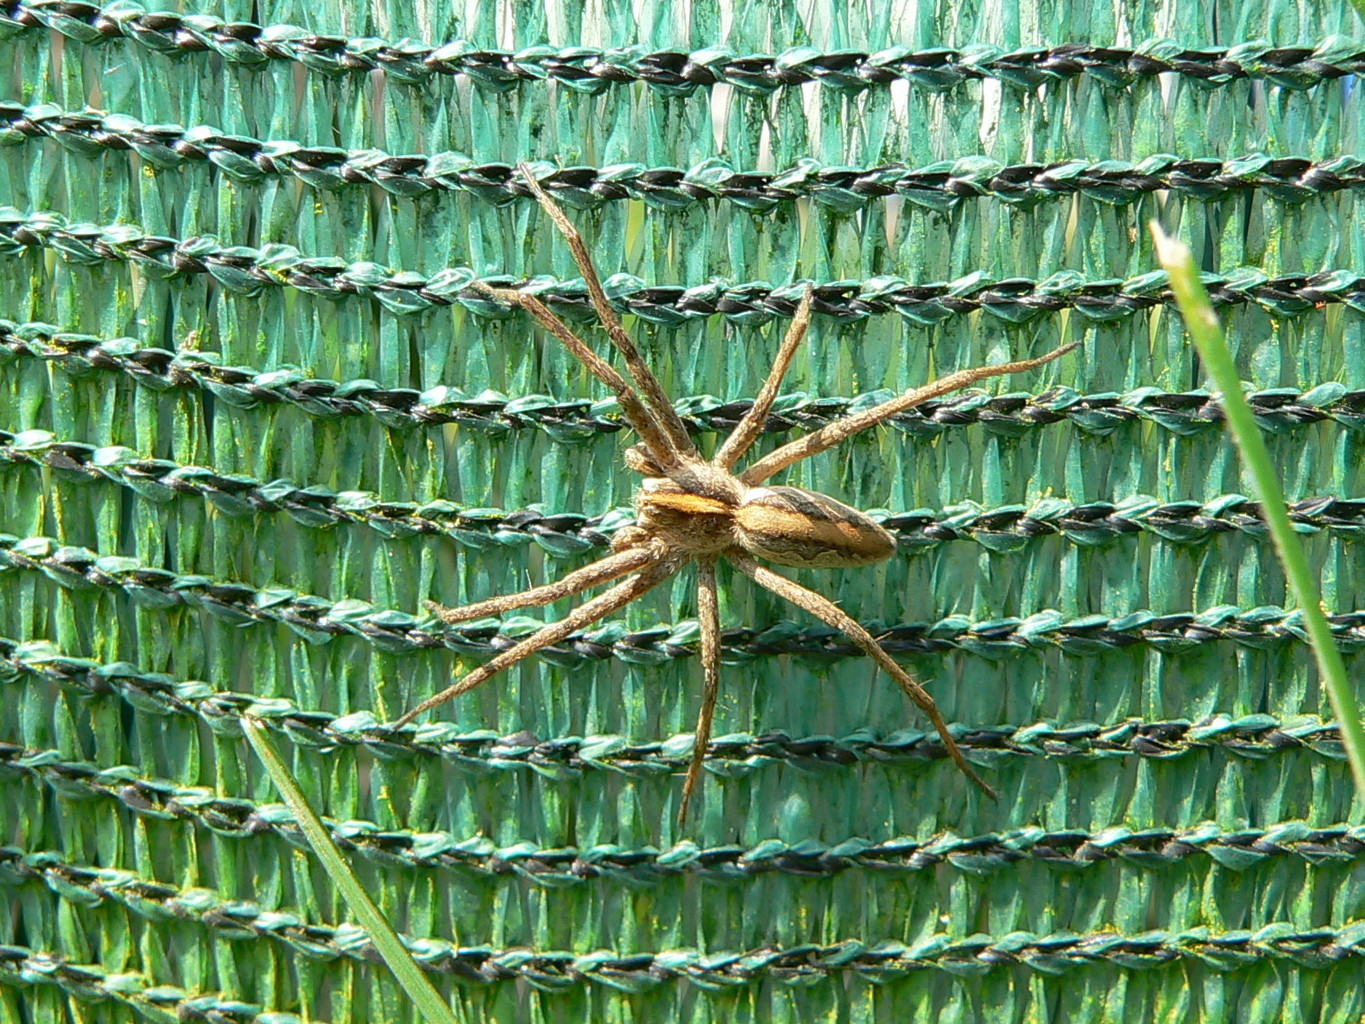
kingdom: Animalia
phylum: Arthropoda
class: Arachnida
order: Araneae
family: Pisauridae
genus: Pisaura
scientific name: Pisaura mirabilis
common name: Tent spider
